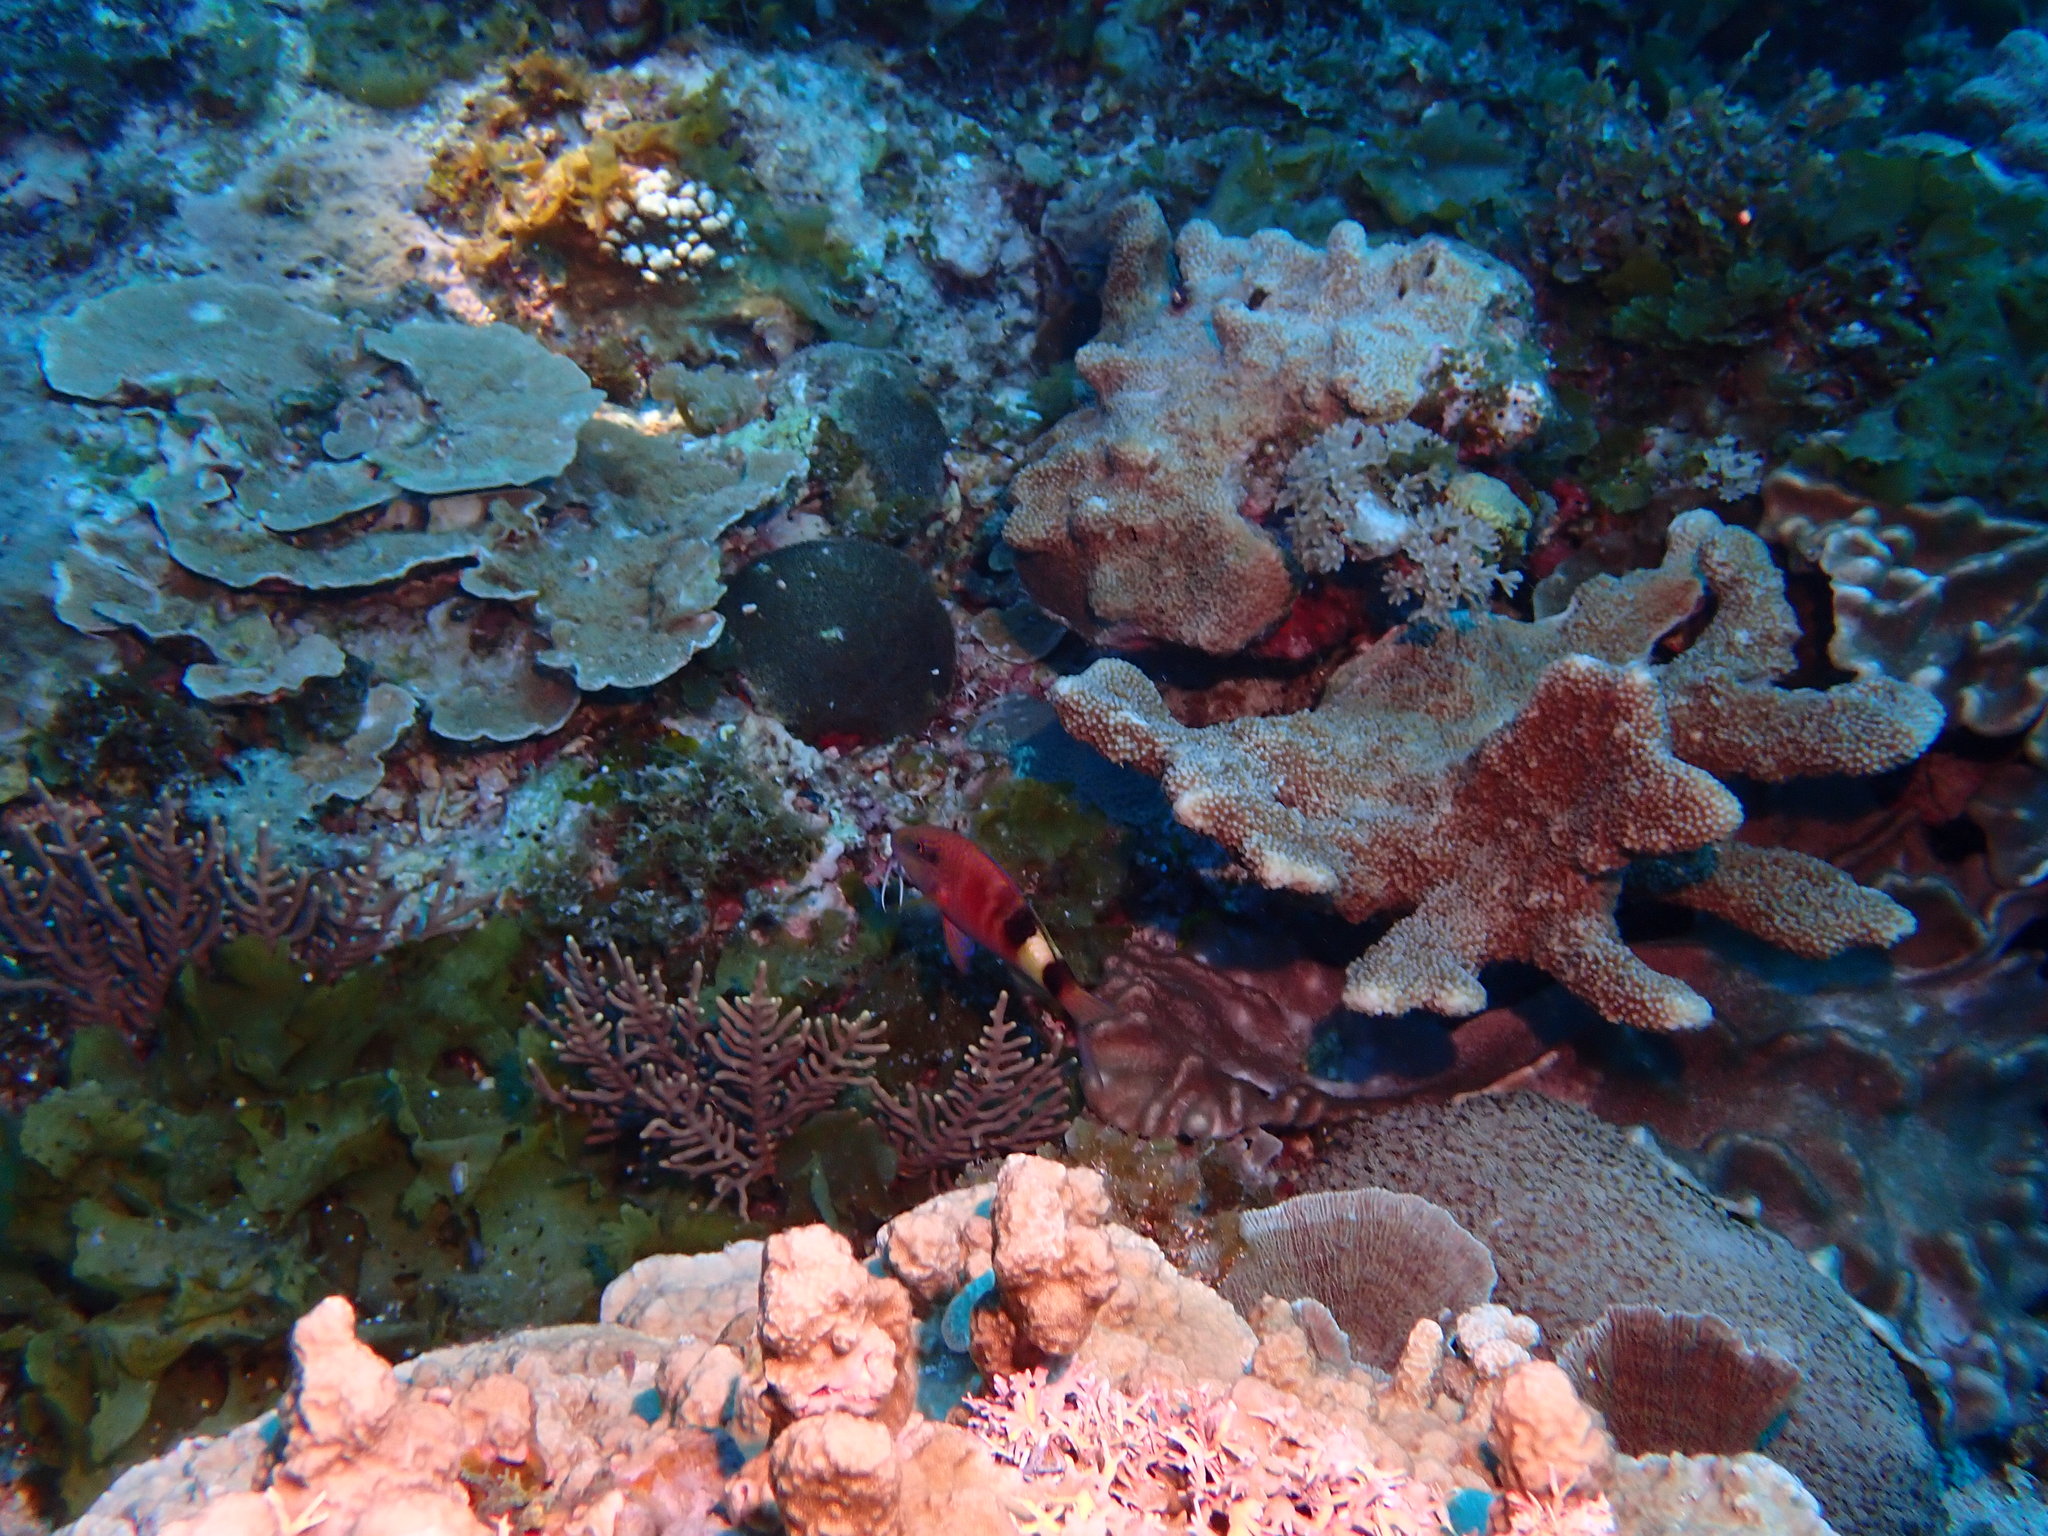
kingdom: Animalia
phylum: Chordata
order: Perciformes
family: Mullidae
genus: Parupeneus
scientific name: Parupeneus multifasciatus
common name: Manybar goatfish
